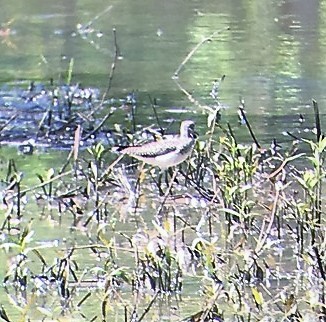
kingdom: Animalia
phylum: Chordata
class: Aves
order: Charadriiformes
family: Scolopacidae
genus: Tringa
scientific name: Tringa solitaria
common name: Solitary sandpiper
